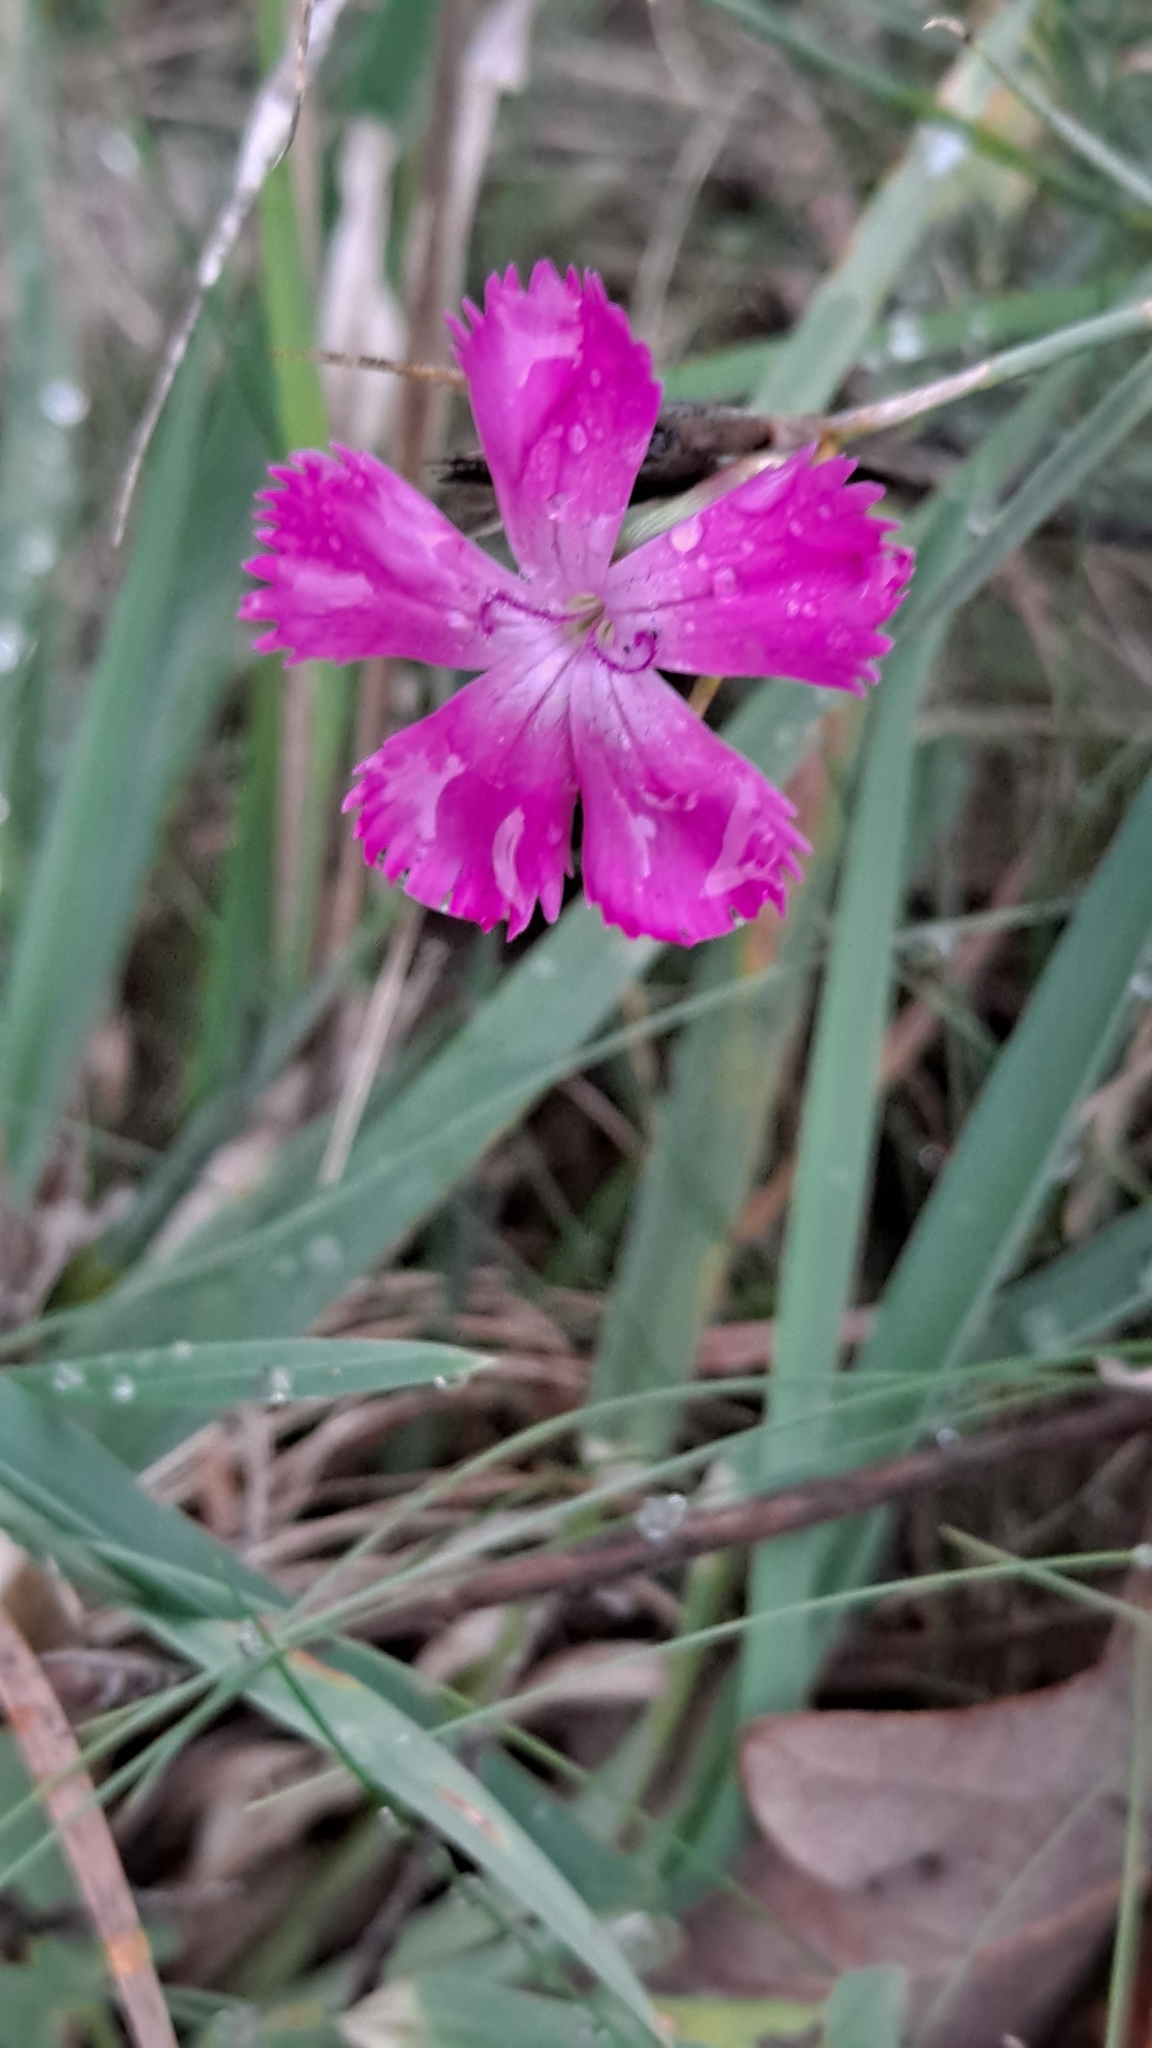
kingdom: Plantae
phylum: Tracheophyta
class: Magnoliopsida
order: Caryophyllales
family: Caryophyllaceae
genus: Dianthus
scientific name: Dianthus carthusianorum
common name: Carthusian pink
